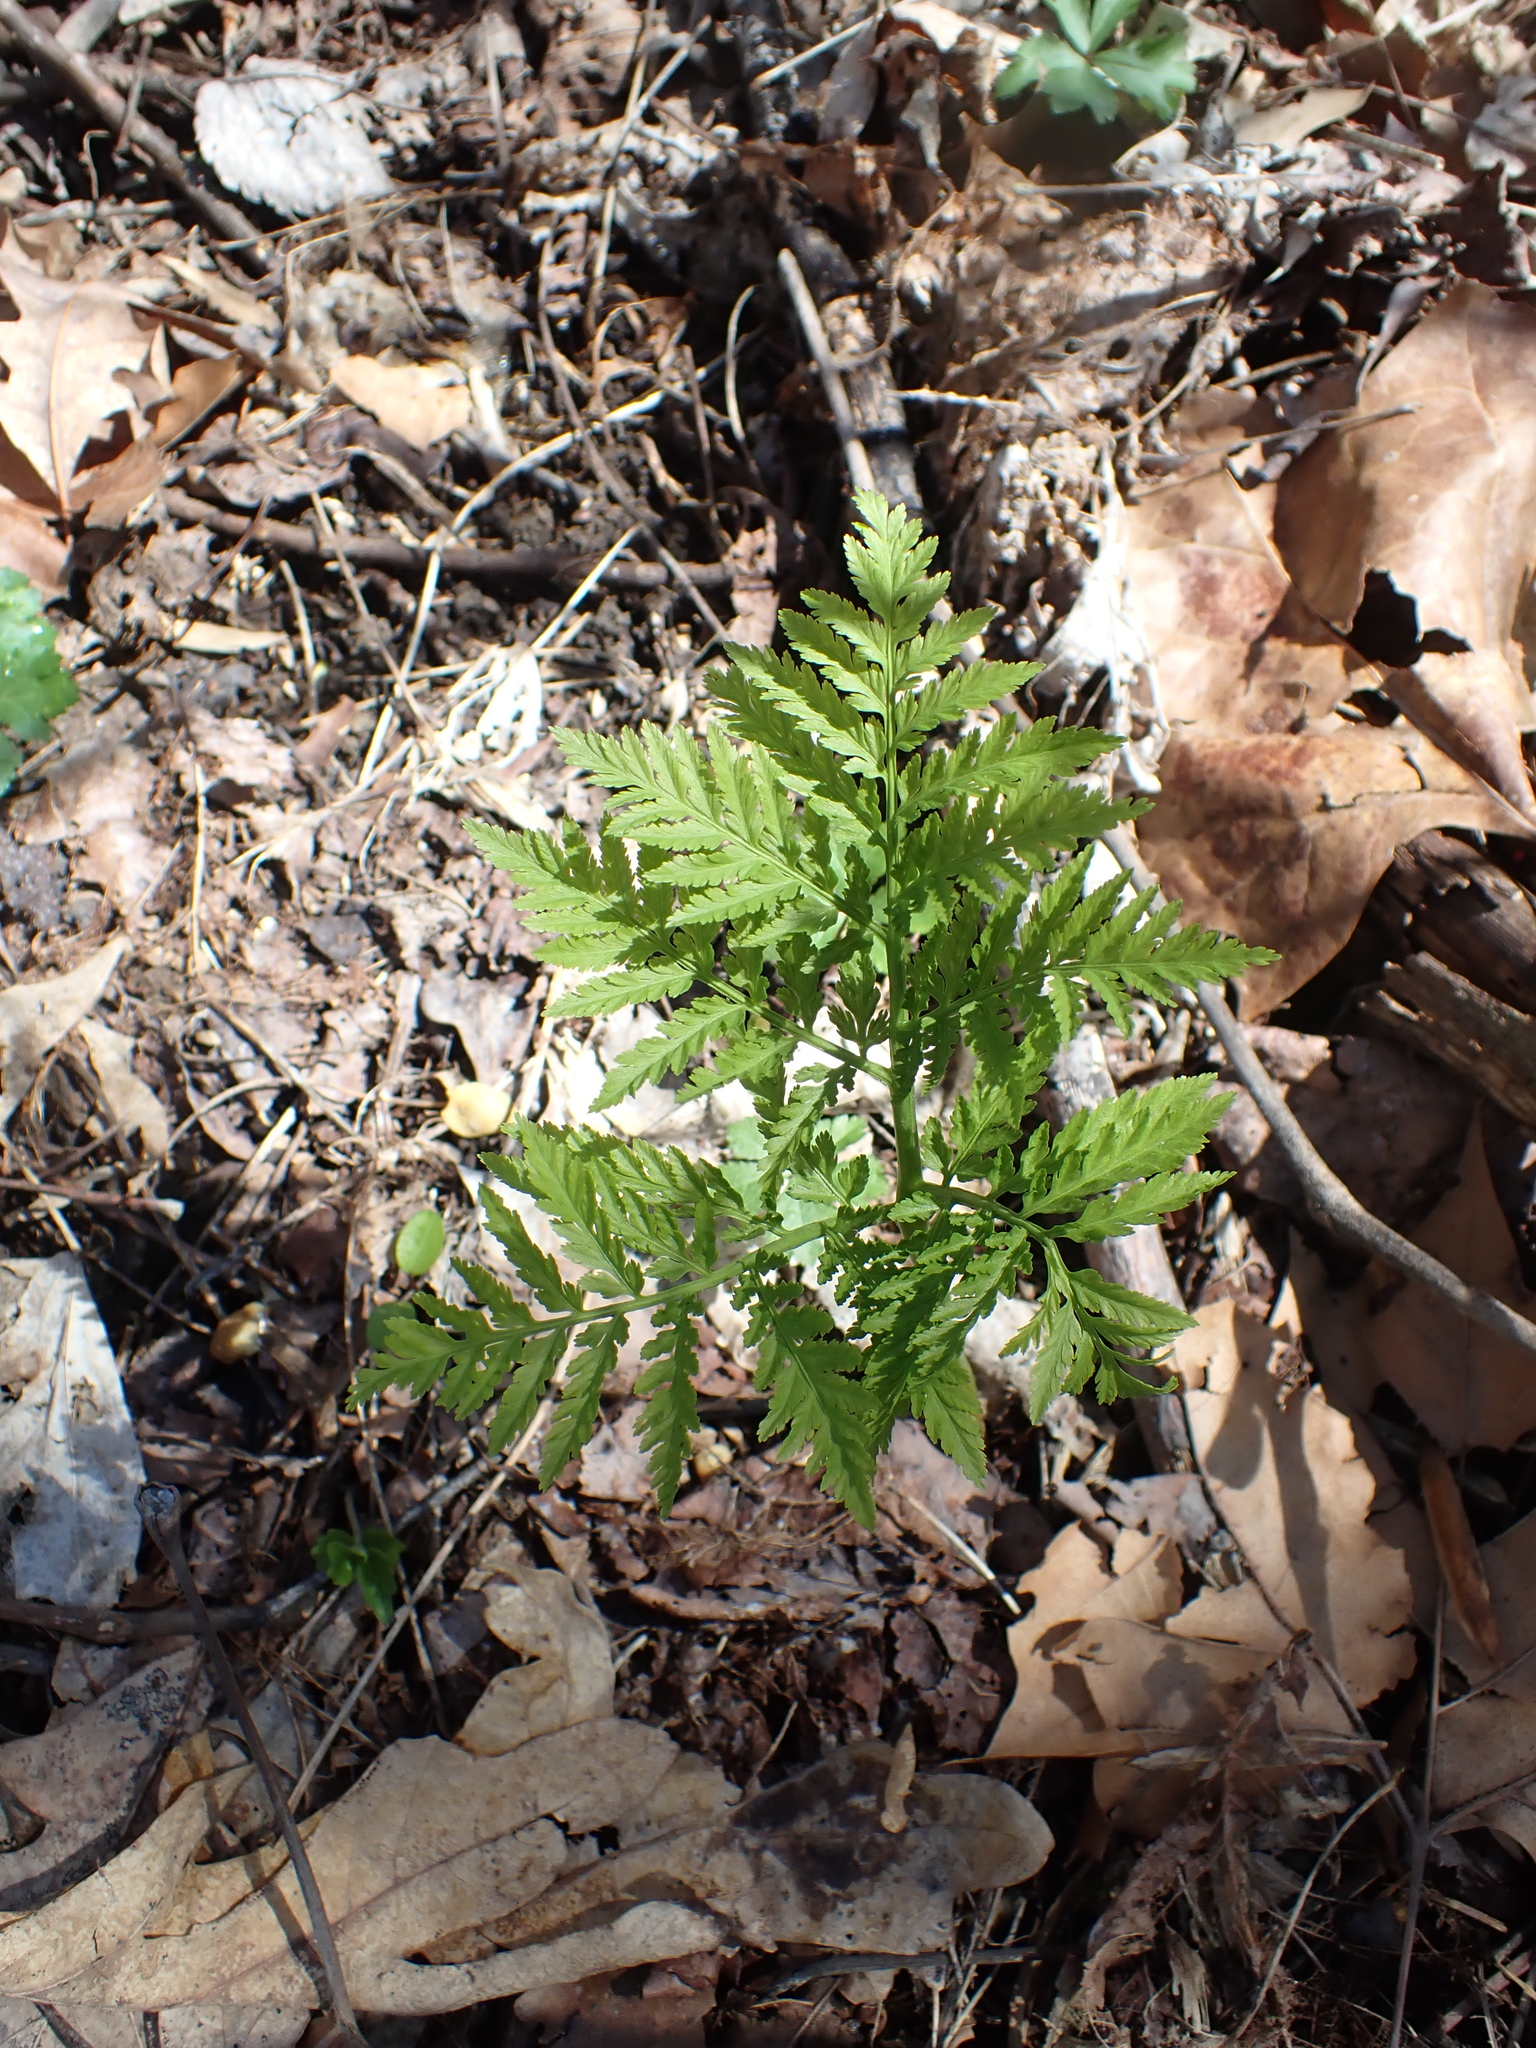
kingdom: Plantae
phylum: Tracheophyta
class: Polypodiopsida
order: Ophioglossales
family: Ophioglossaceae
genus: Botrypus
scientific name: Botrypus virginianus
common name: Common grapefern
